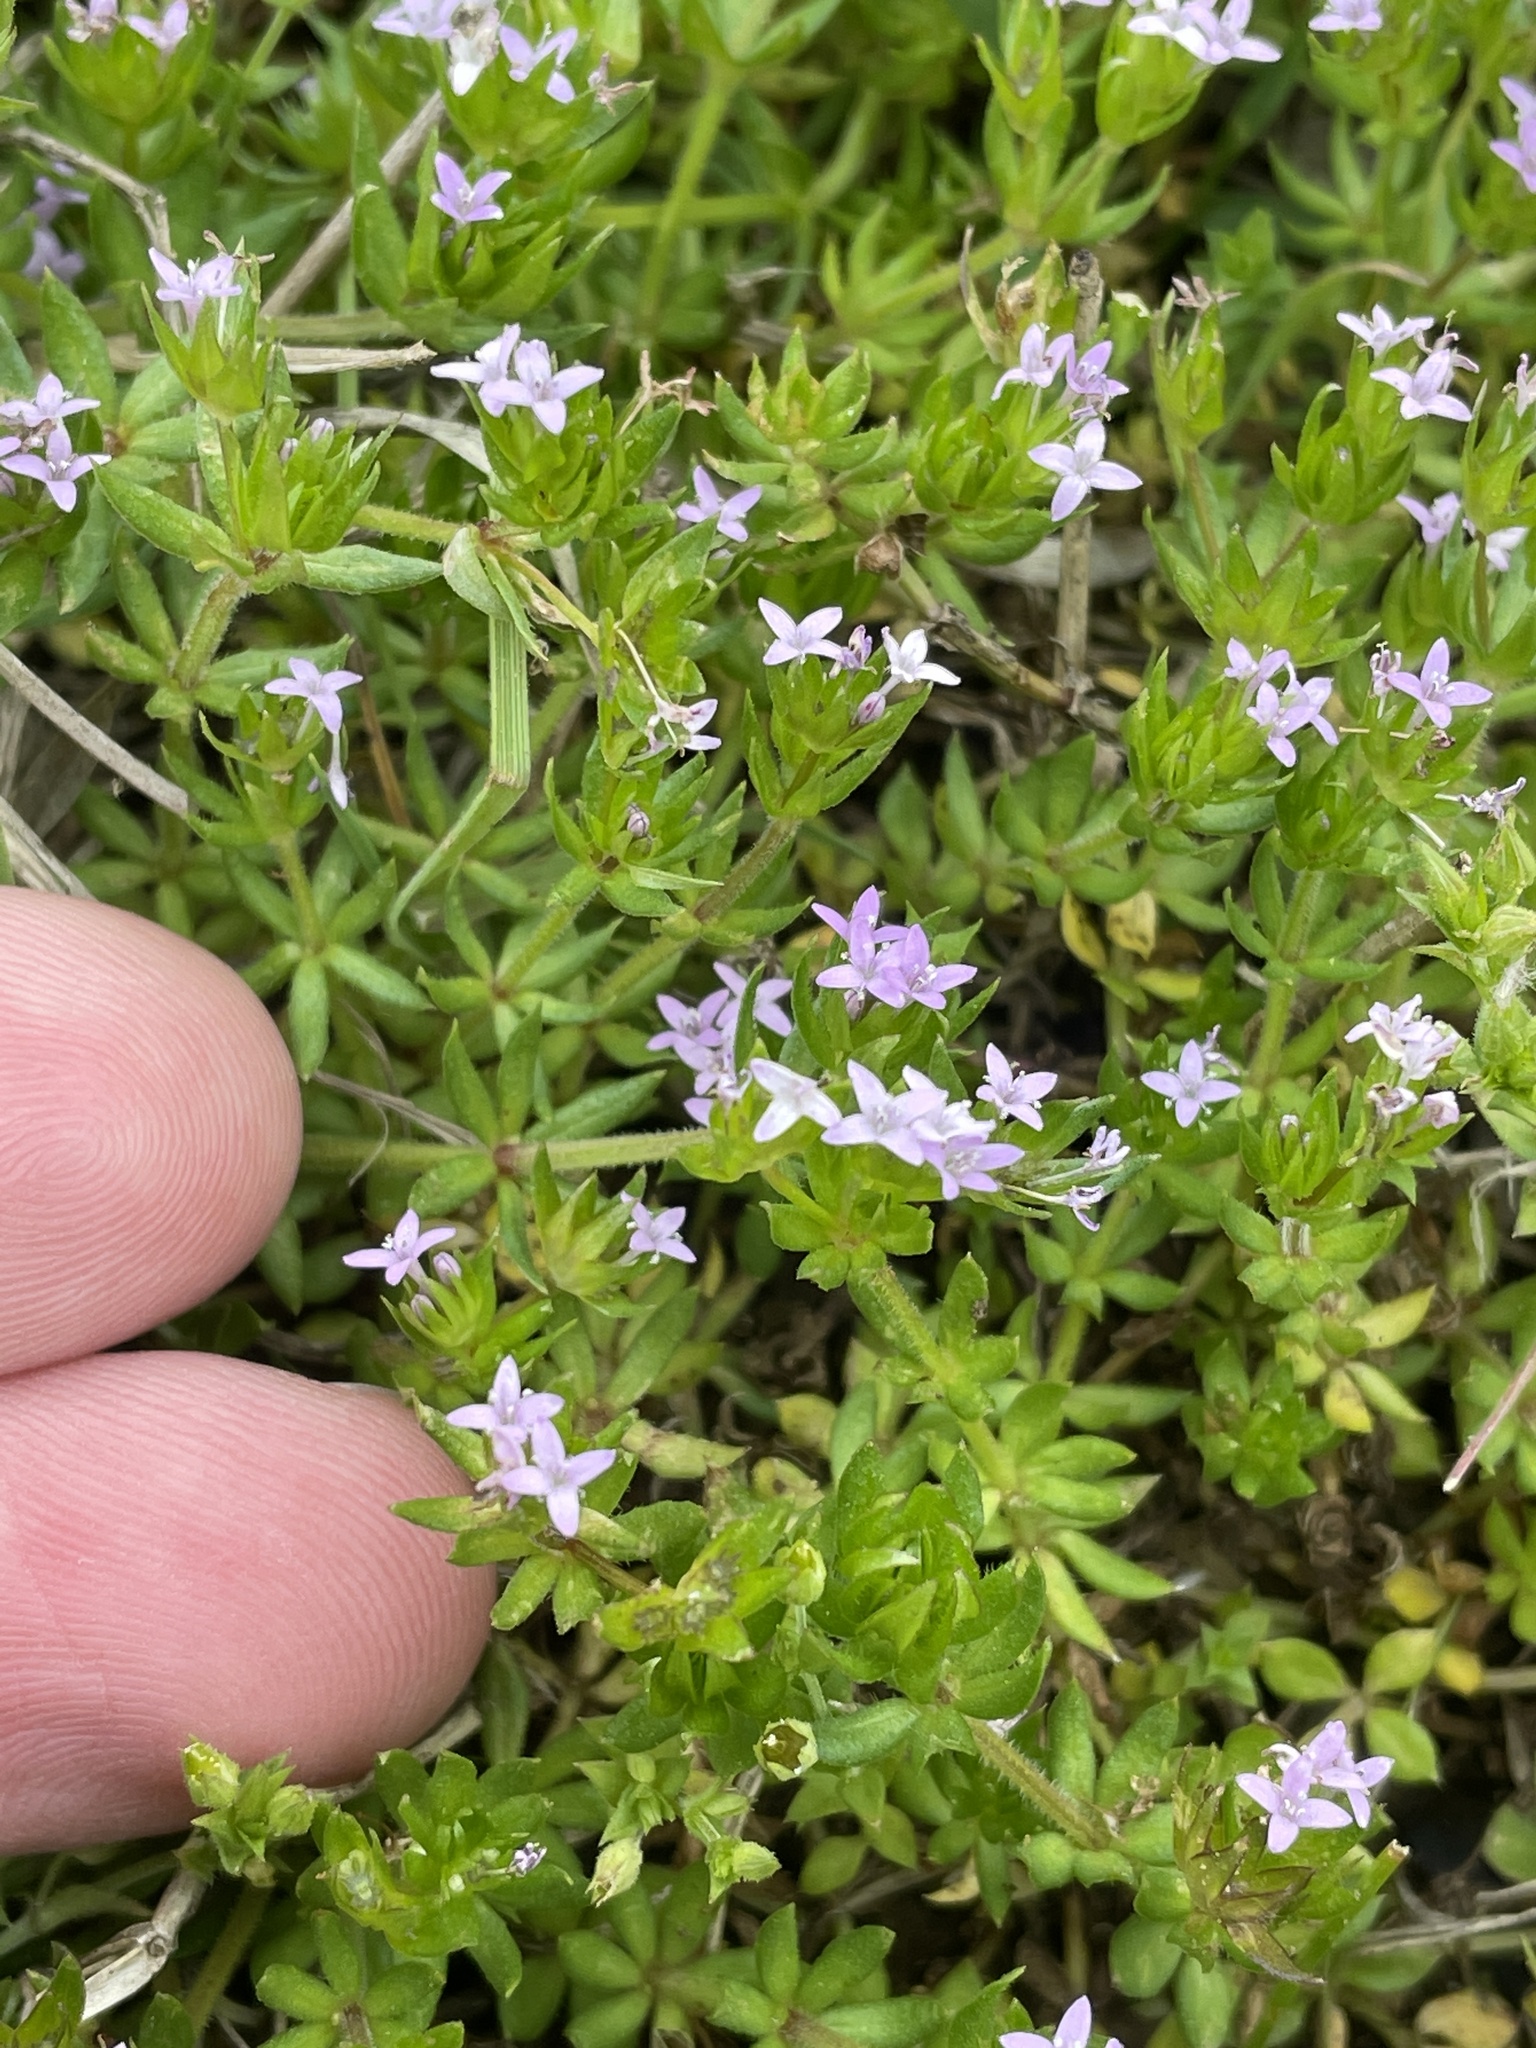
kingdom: Plantae
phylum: Tracheophyta
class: Magnoliopsida
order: Gentianales
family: Rubiaceae
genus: Sherardia
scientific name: Sherardia arvensis
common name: Field madder
